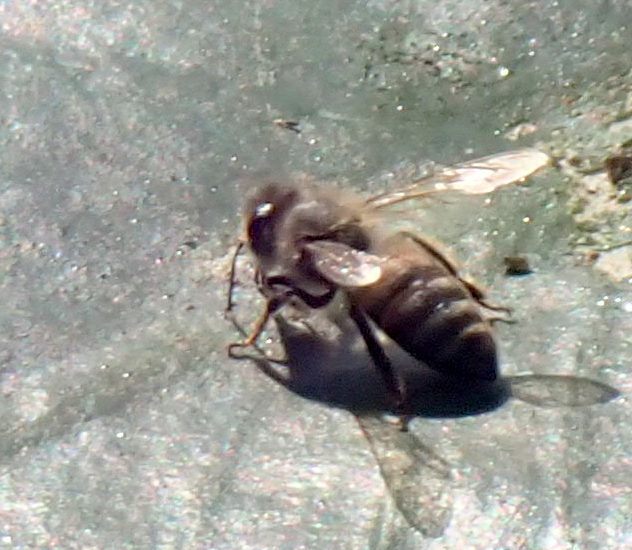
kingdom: Animalia
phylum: Arthropoda
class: Insecta
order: Hymenoptera
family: Apidae
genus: Apis
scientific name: Apis mellifera
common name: Honey bee
